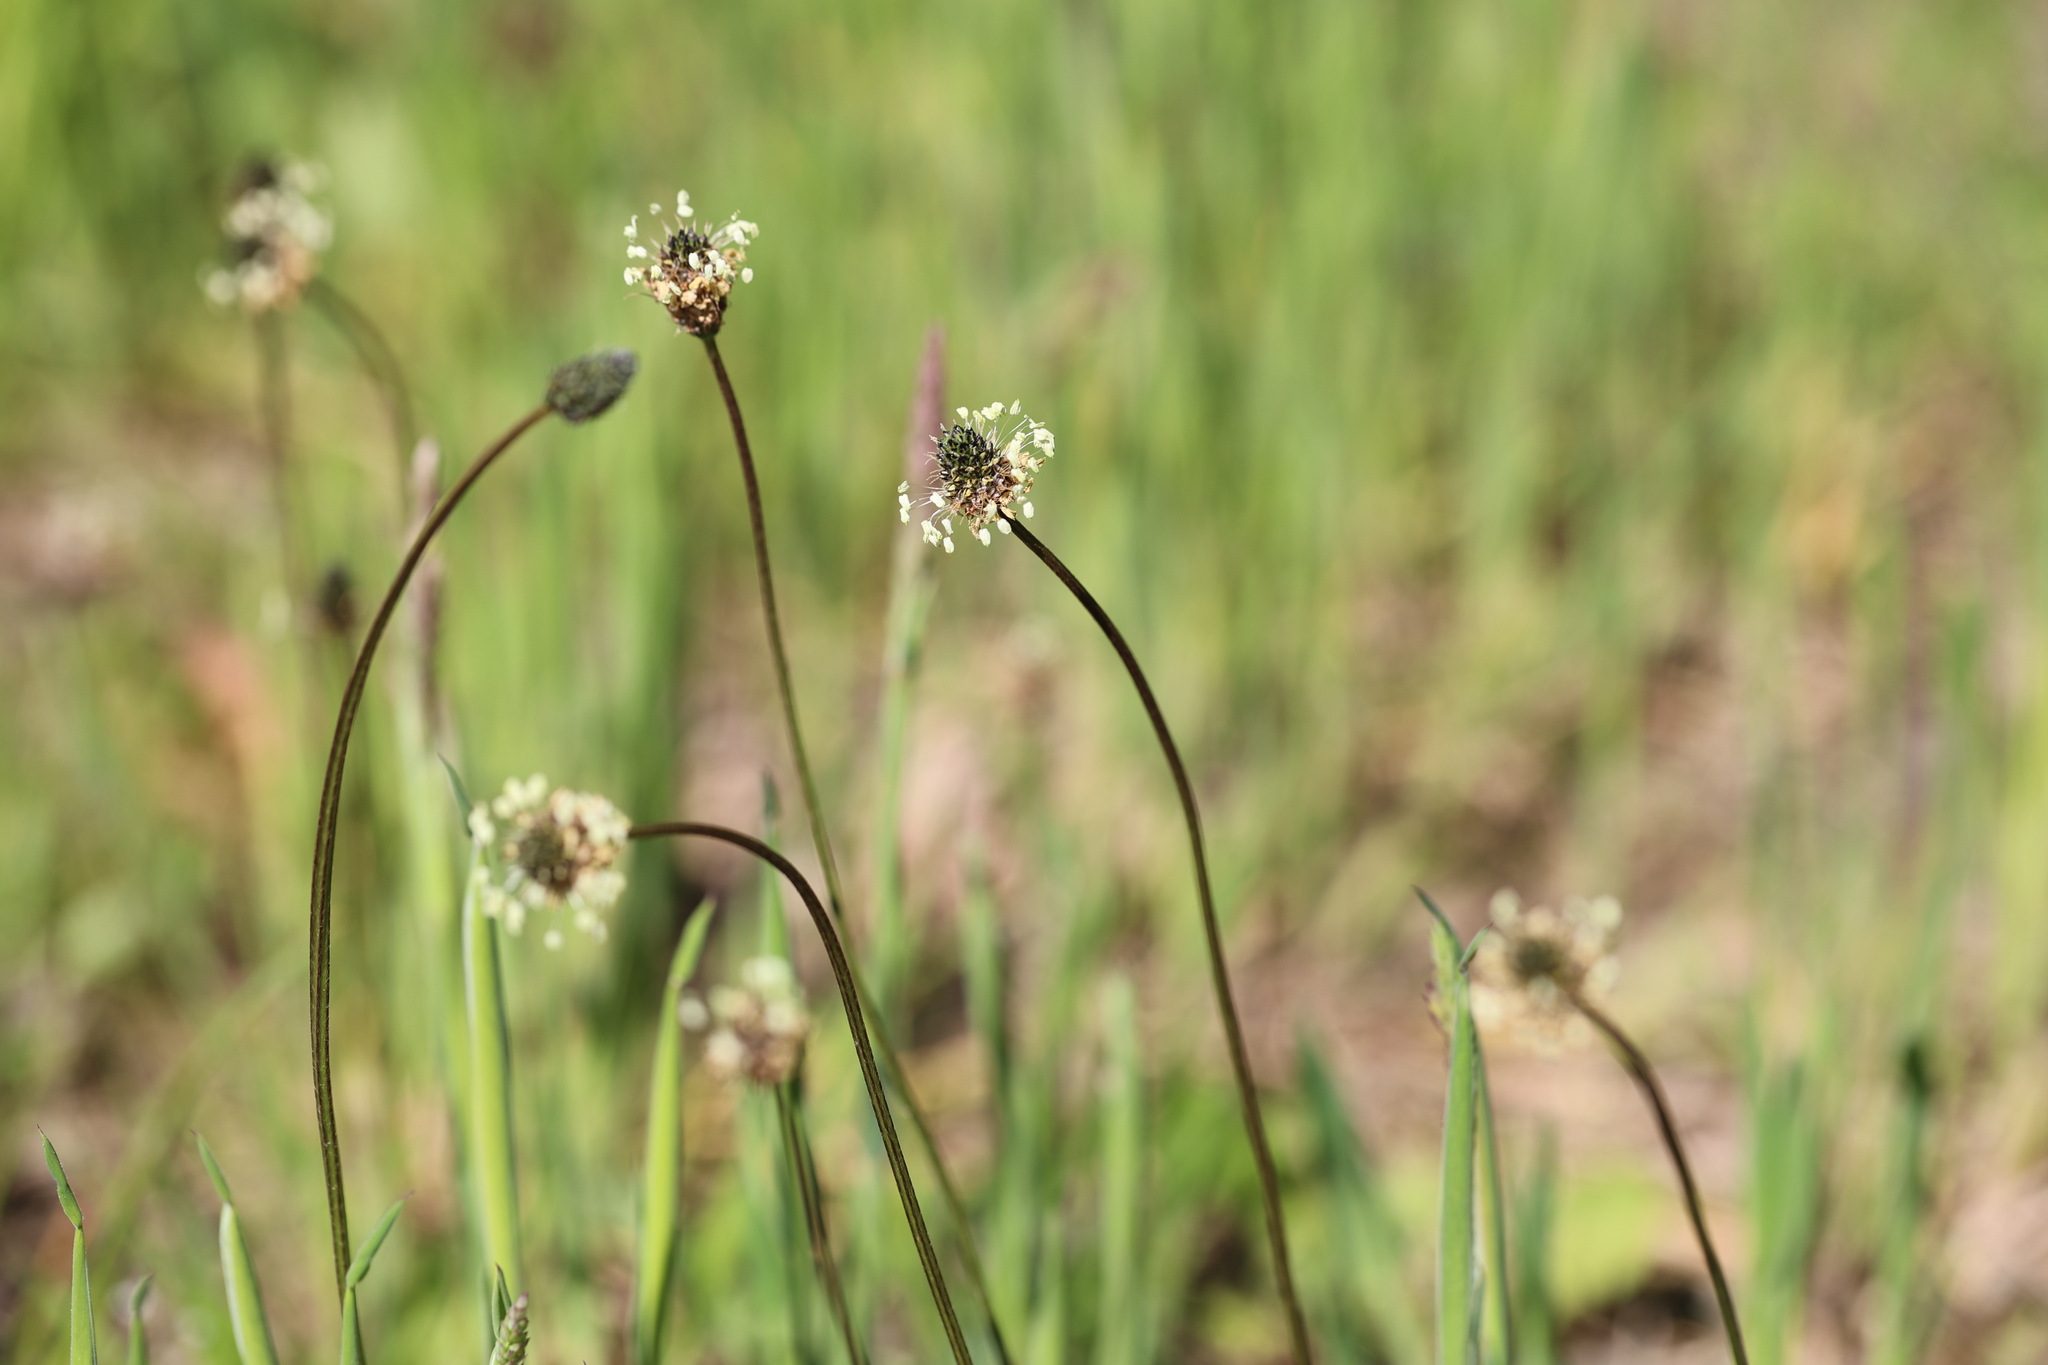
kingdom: Plantae
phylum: Tracheophyta
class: Magnoliopsida
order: Lamiales
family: Plantaginaceae
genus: Plantago
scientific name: Plantago lanceolata
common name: Ribwort plantain
